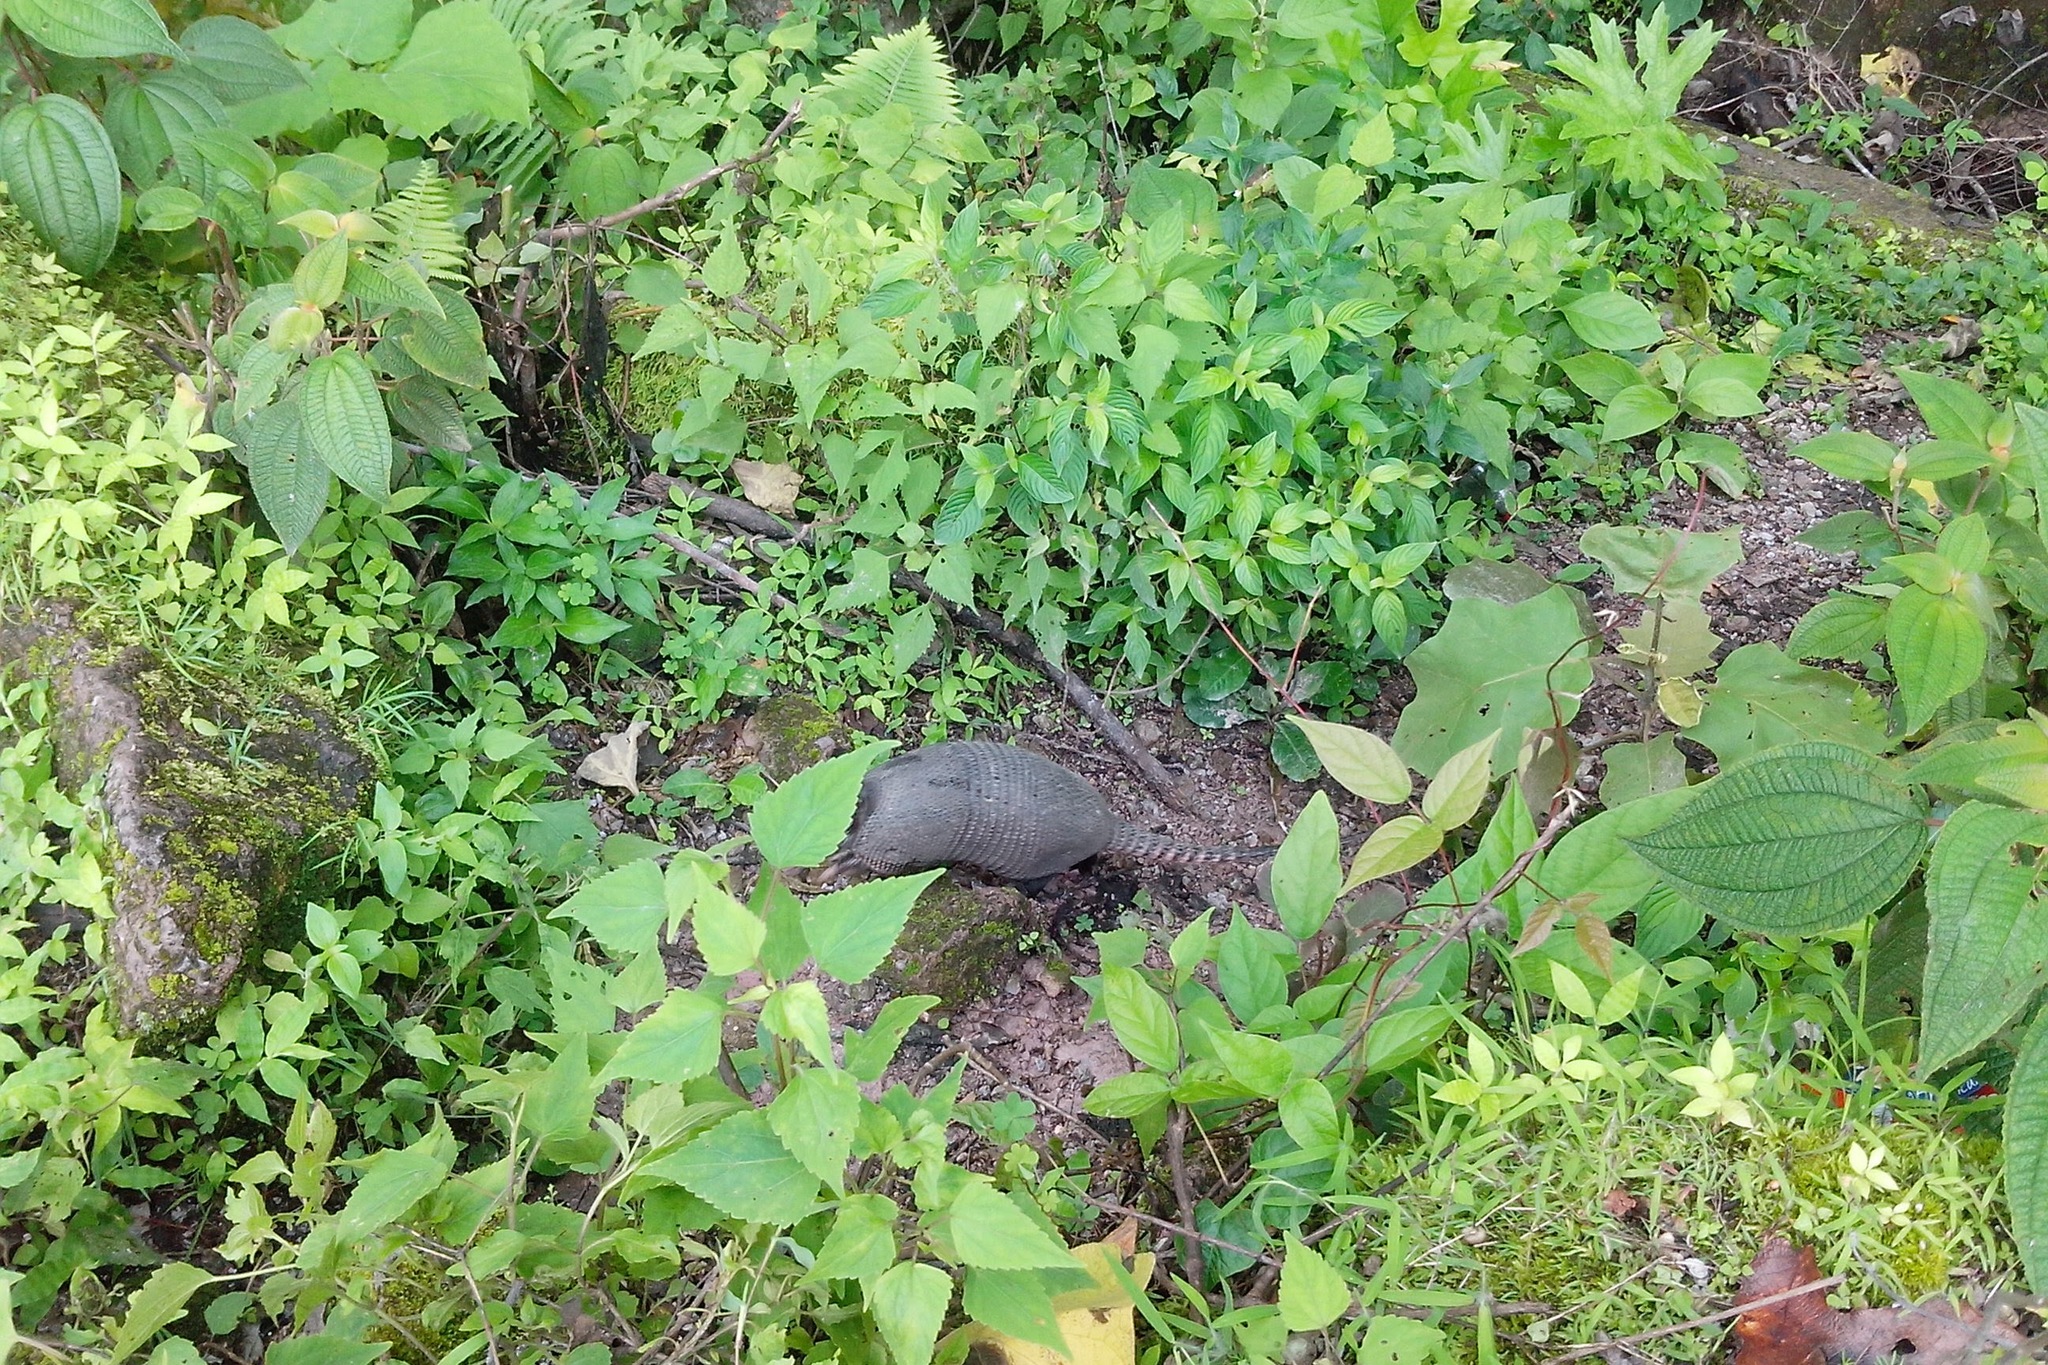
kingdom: Animalia
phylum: Chordata
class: Mammalia
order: Cingulata
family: Dasypodidae
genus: Dasypus
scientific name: Dasypus novemcinctus
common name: Nine-banded armadillo
